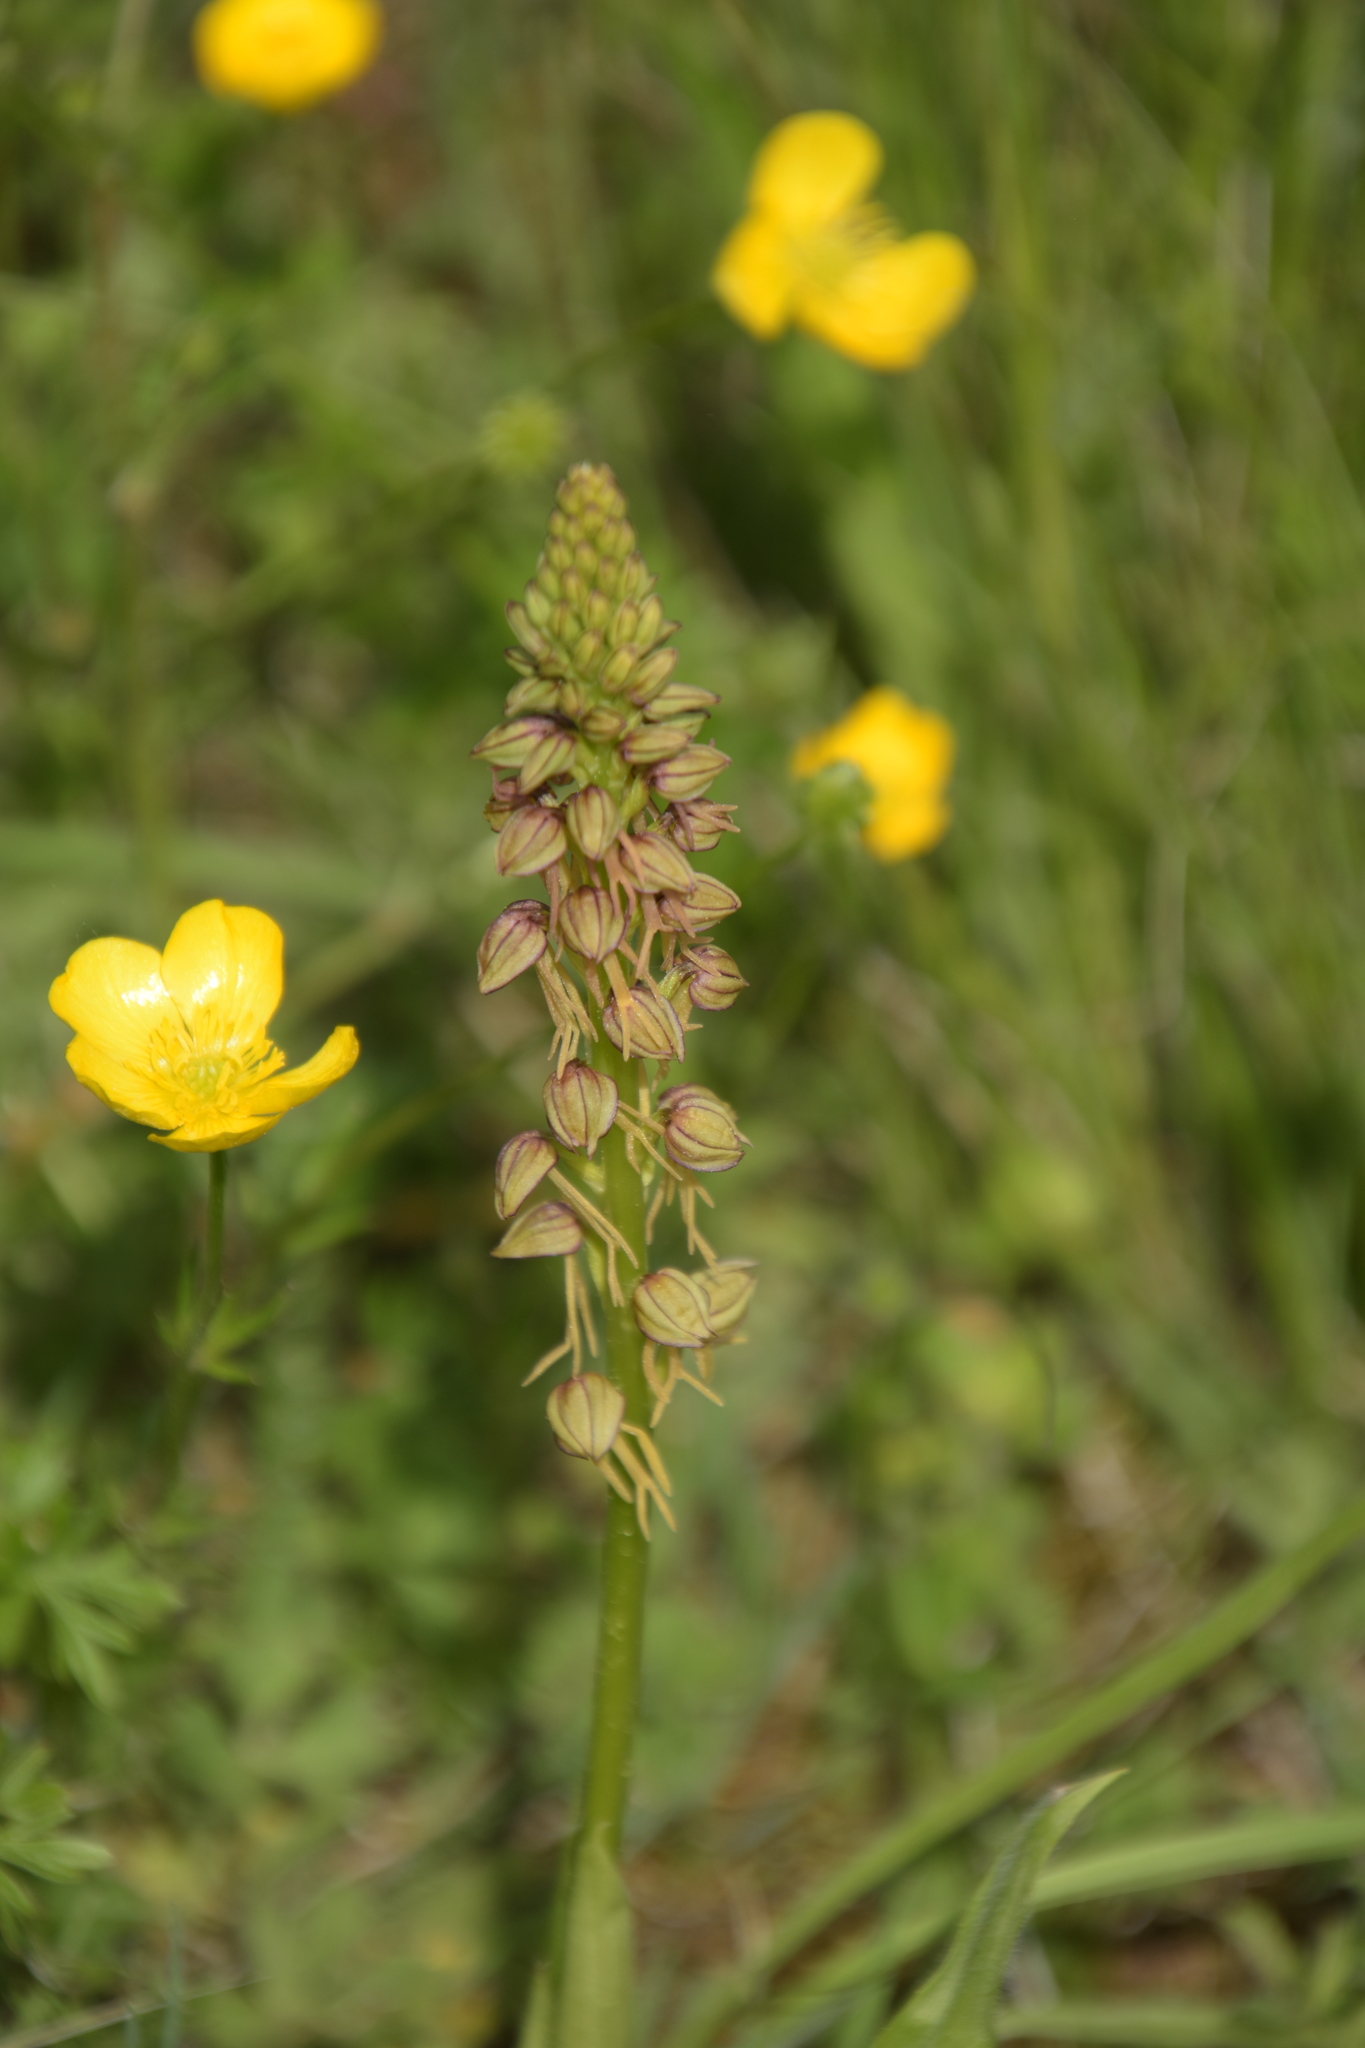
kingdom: Plantae
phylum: Tracheophyta
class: Liliopsida
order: Asparagales
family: Orchidaceae
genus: Orchis
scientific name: Orchis anthropophora
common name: Man orchid
